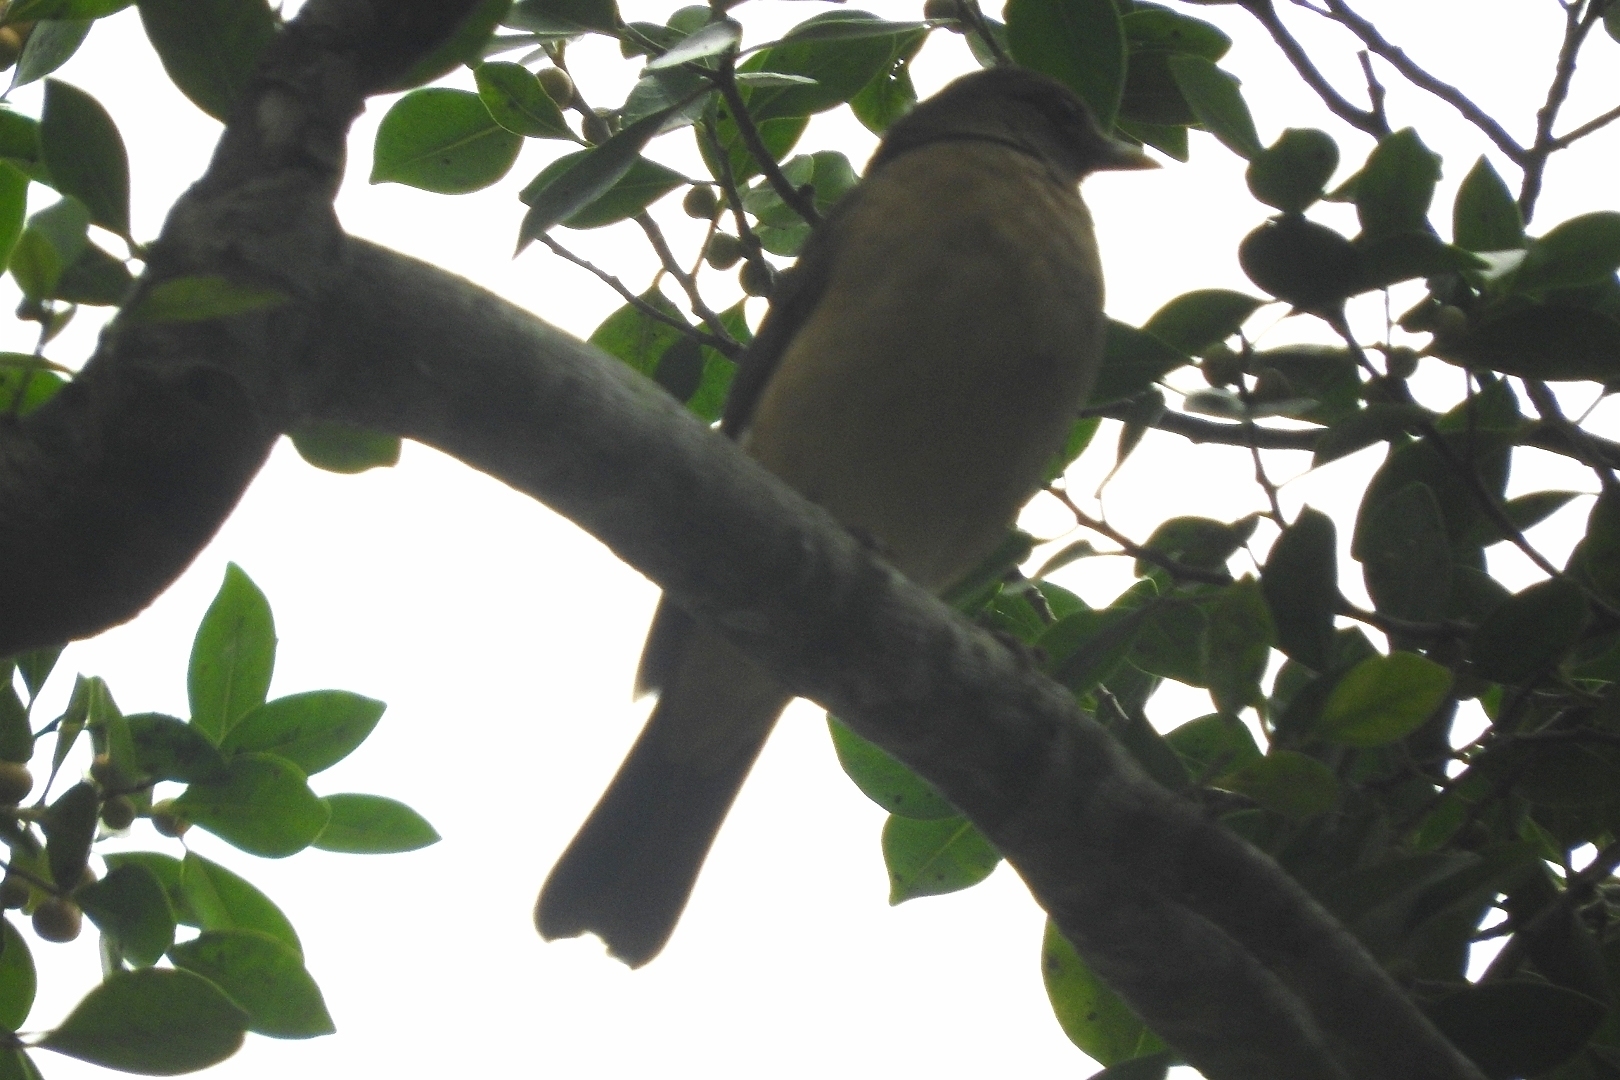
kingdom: Animalia
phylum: Chordata
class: Aves
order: Passeriformes
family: Turdidae
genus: Turdus
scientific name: Turdus grayi
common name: Clay-colored thrush
